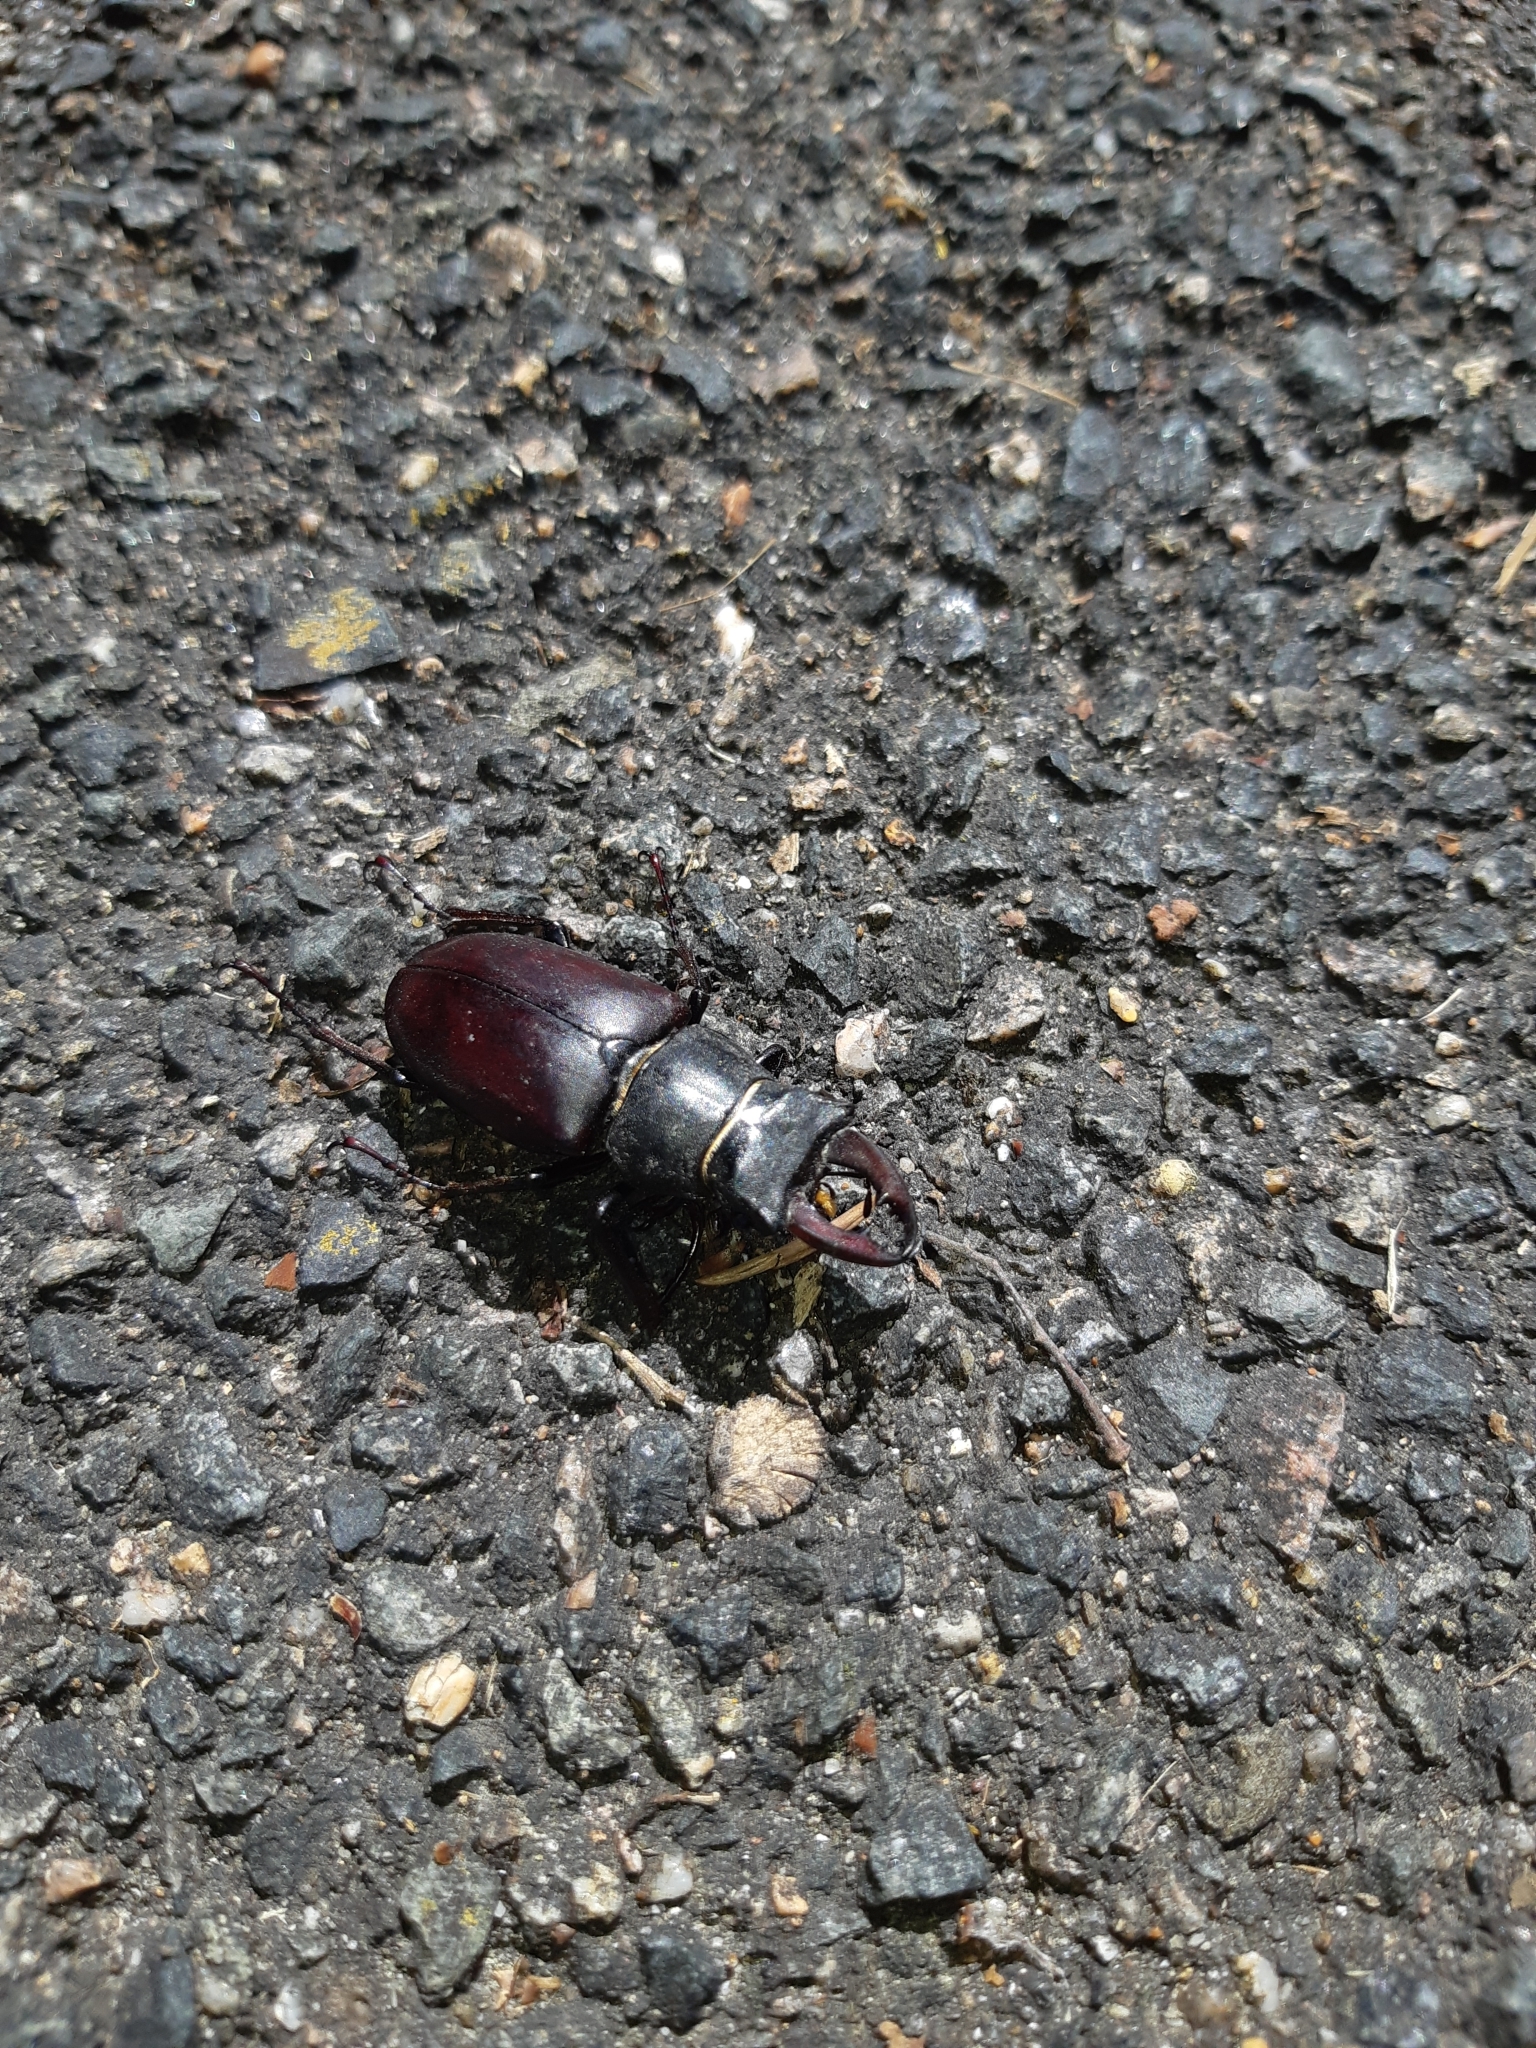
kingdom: Animalia
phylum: Arthropoda
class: Insecta
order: Coleoptera
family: Lucanidae
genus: Lucanus
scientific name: Lucanus cervus
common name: Stag beetle
